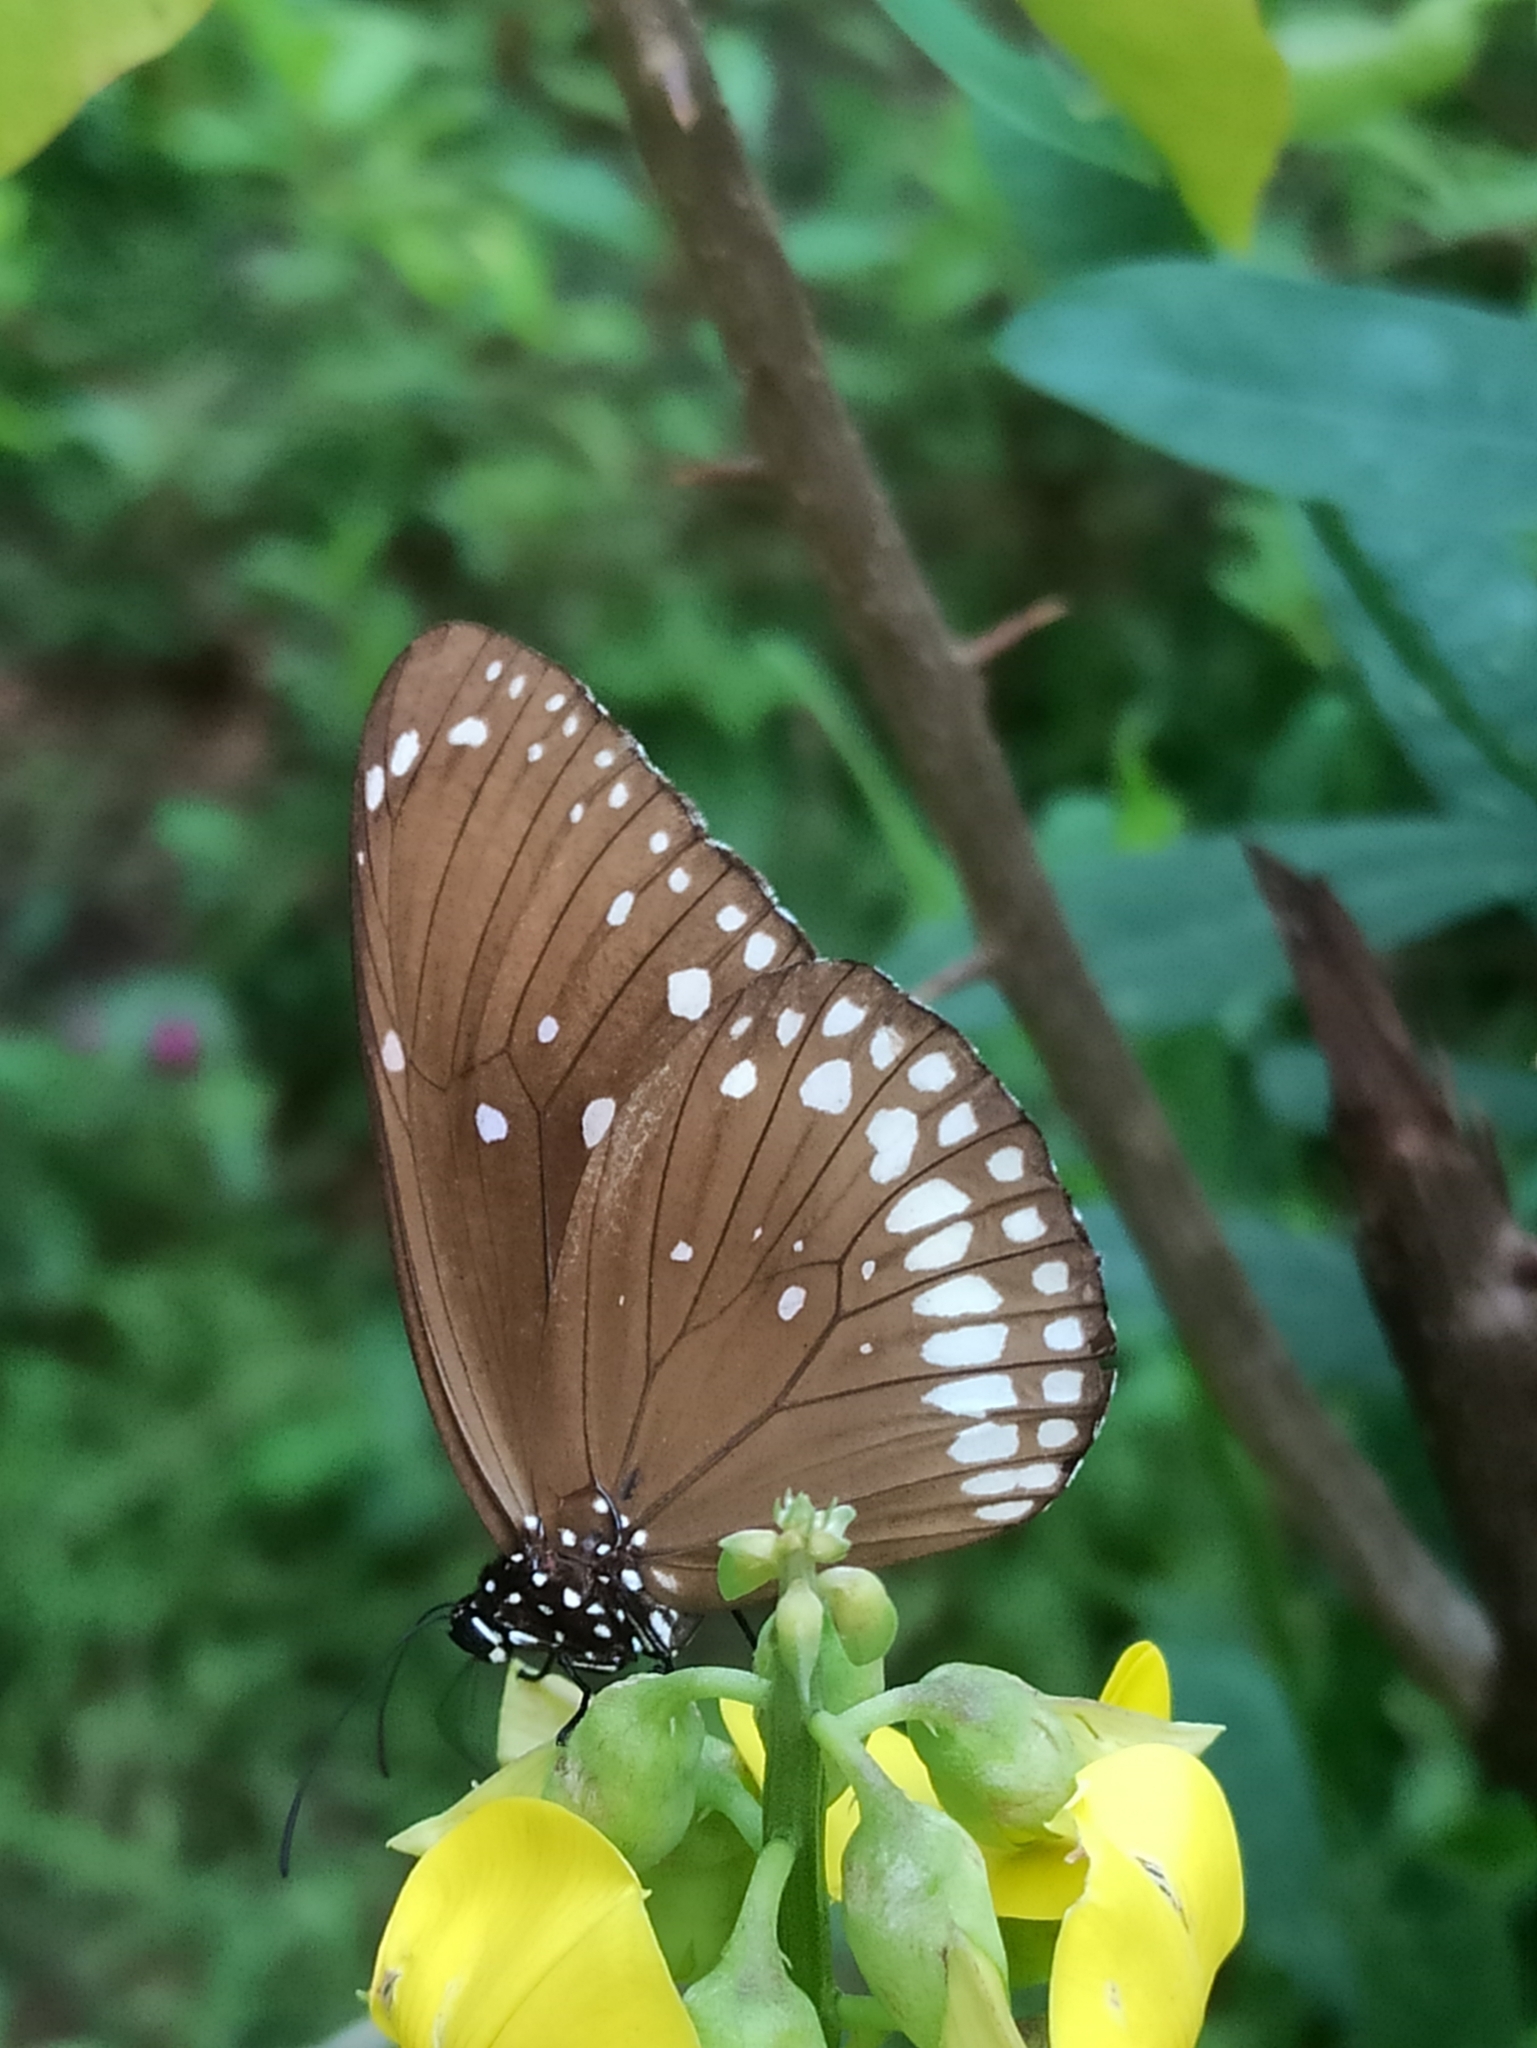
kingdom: Animalia
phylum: Arthropoda
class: Insecta
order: Lepidoptera
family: Nymphalidae
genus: Euploea
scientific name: Euploea core
